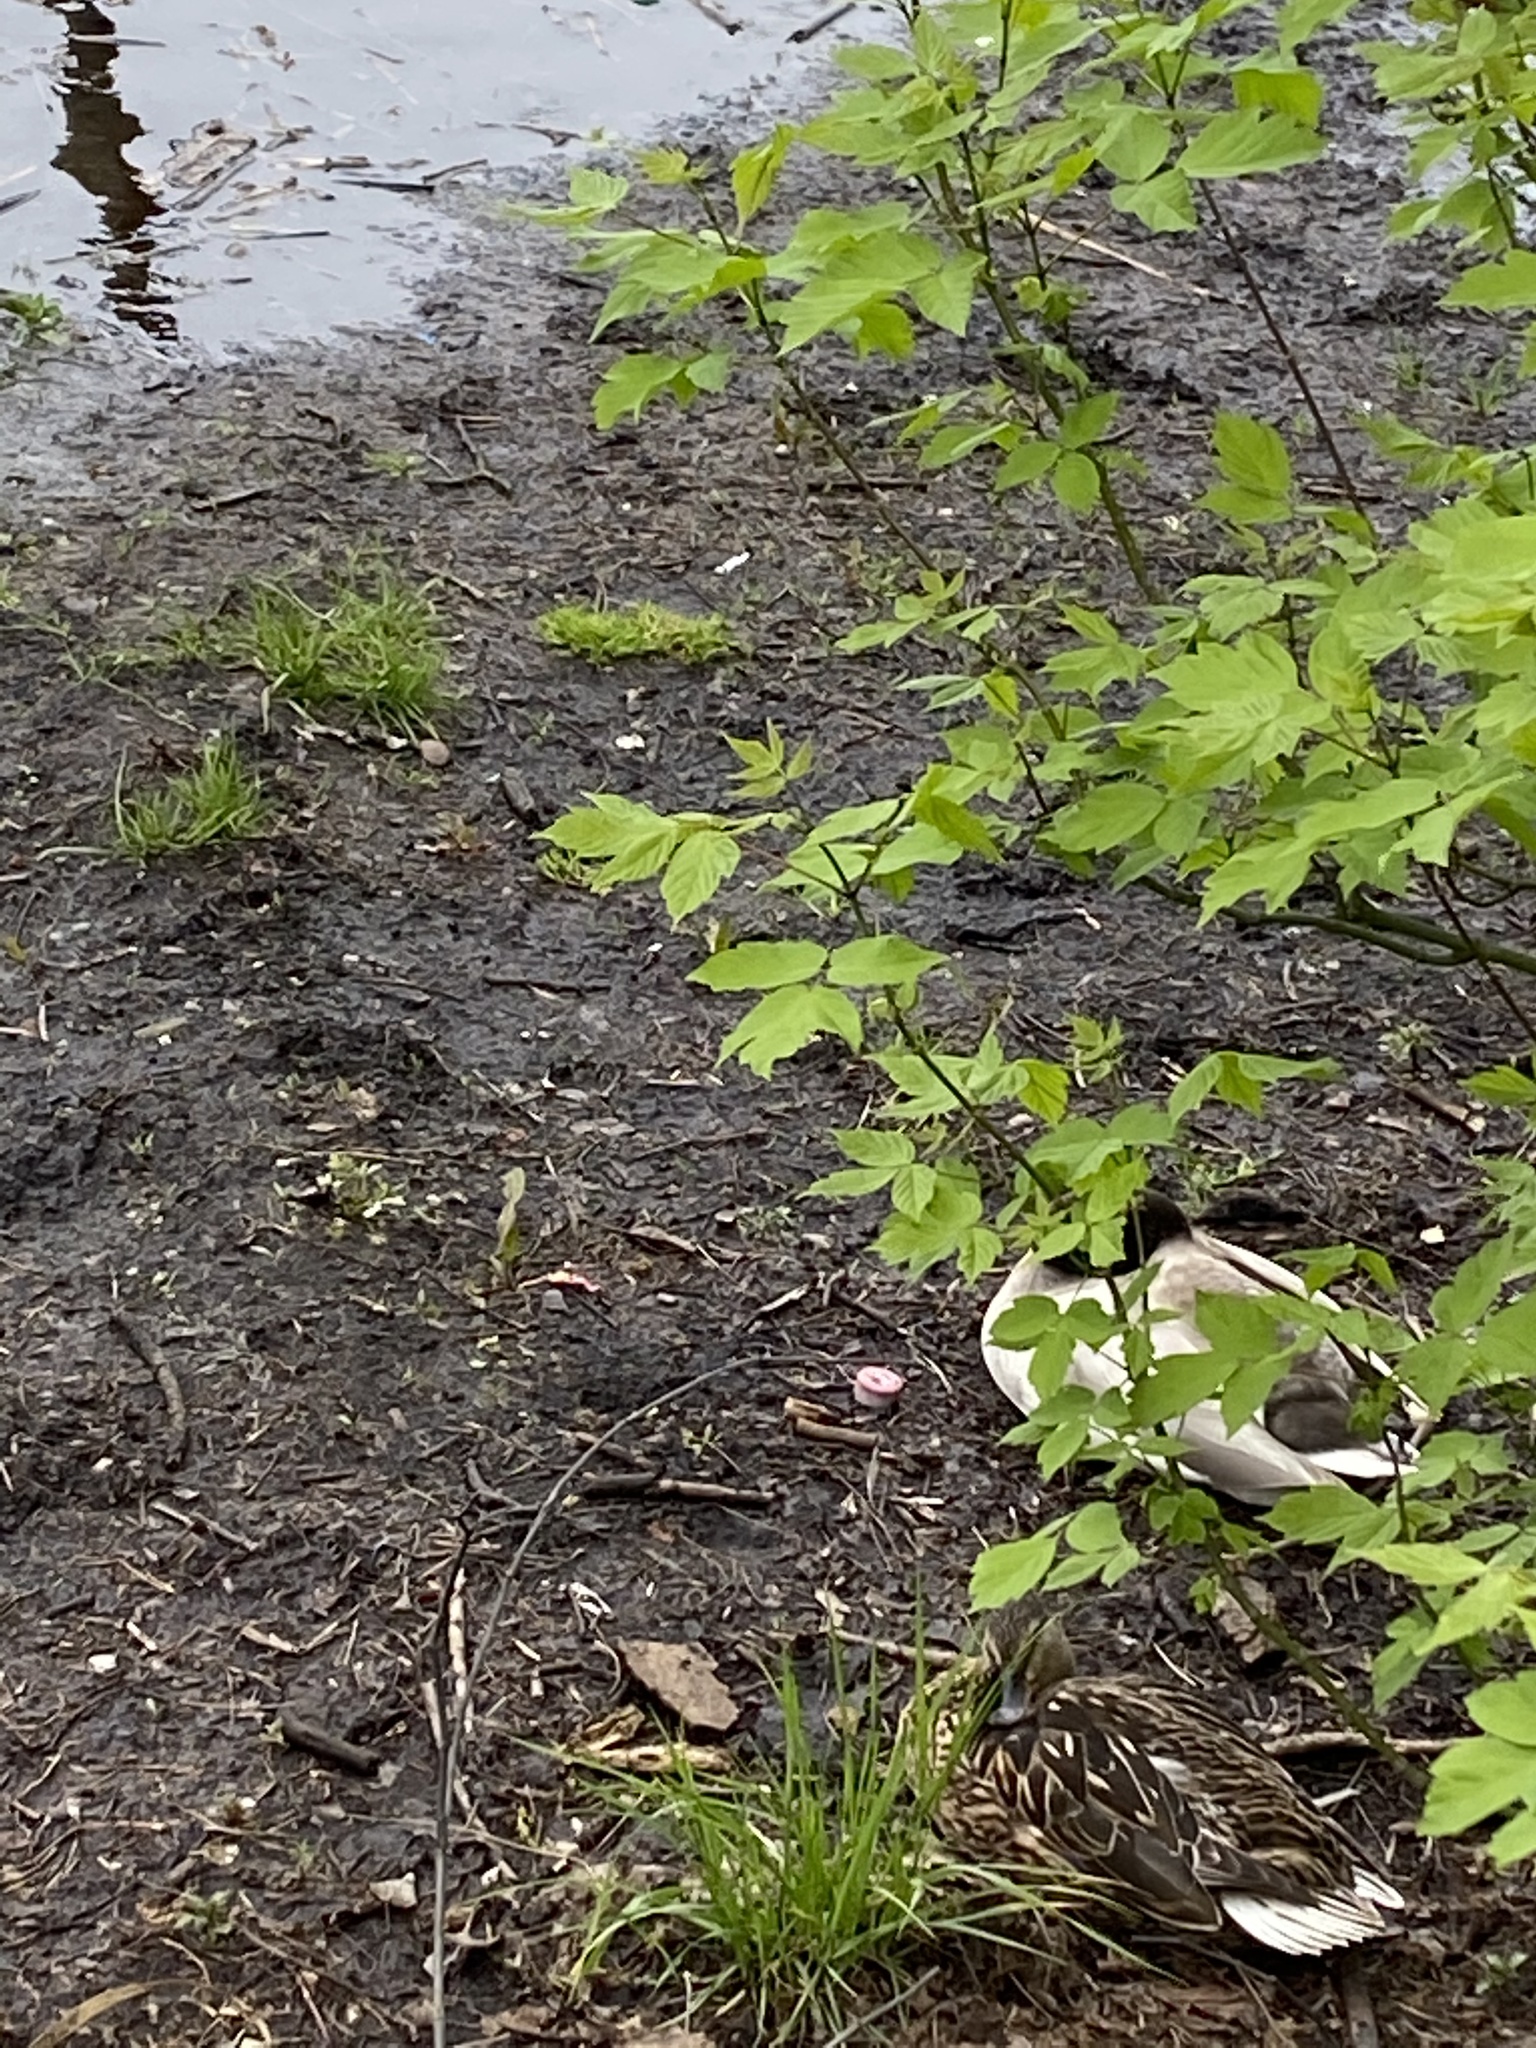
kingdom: Animalia
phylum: Chordata
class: Aves
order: Anseriformes
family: Anatidae
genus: Anas
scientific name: Anas platyrhynchos
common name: Mallard
